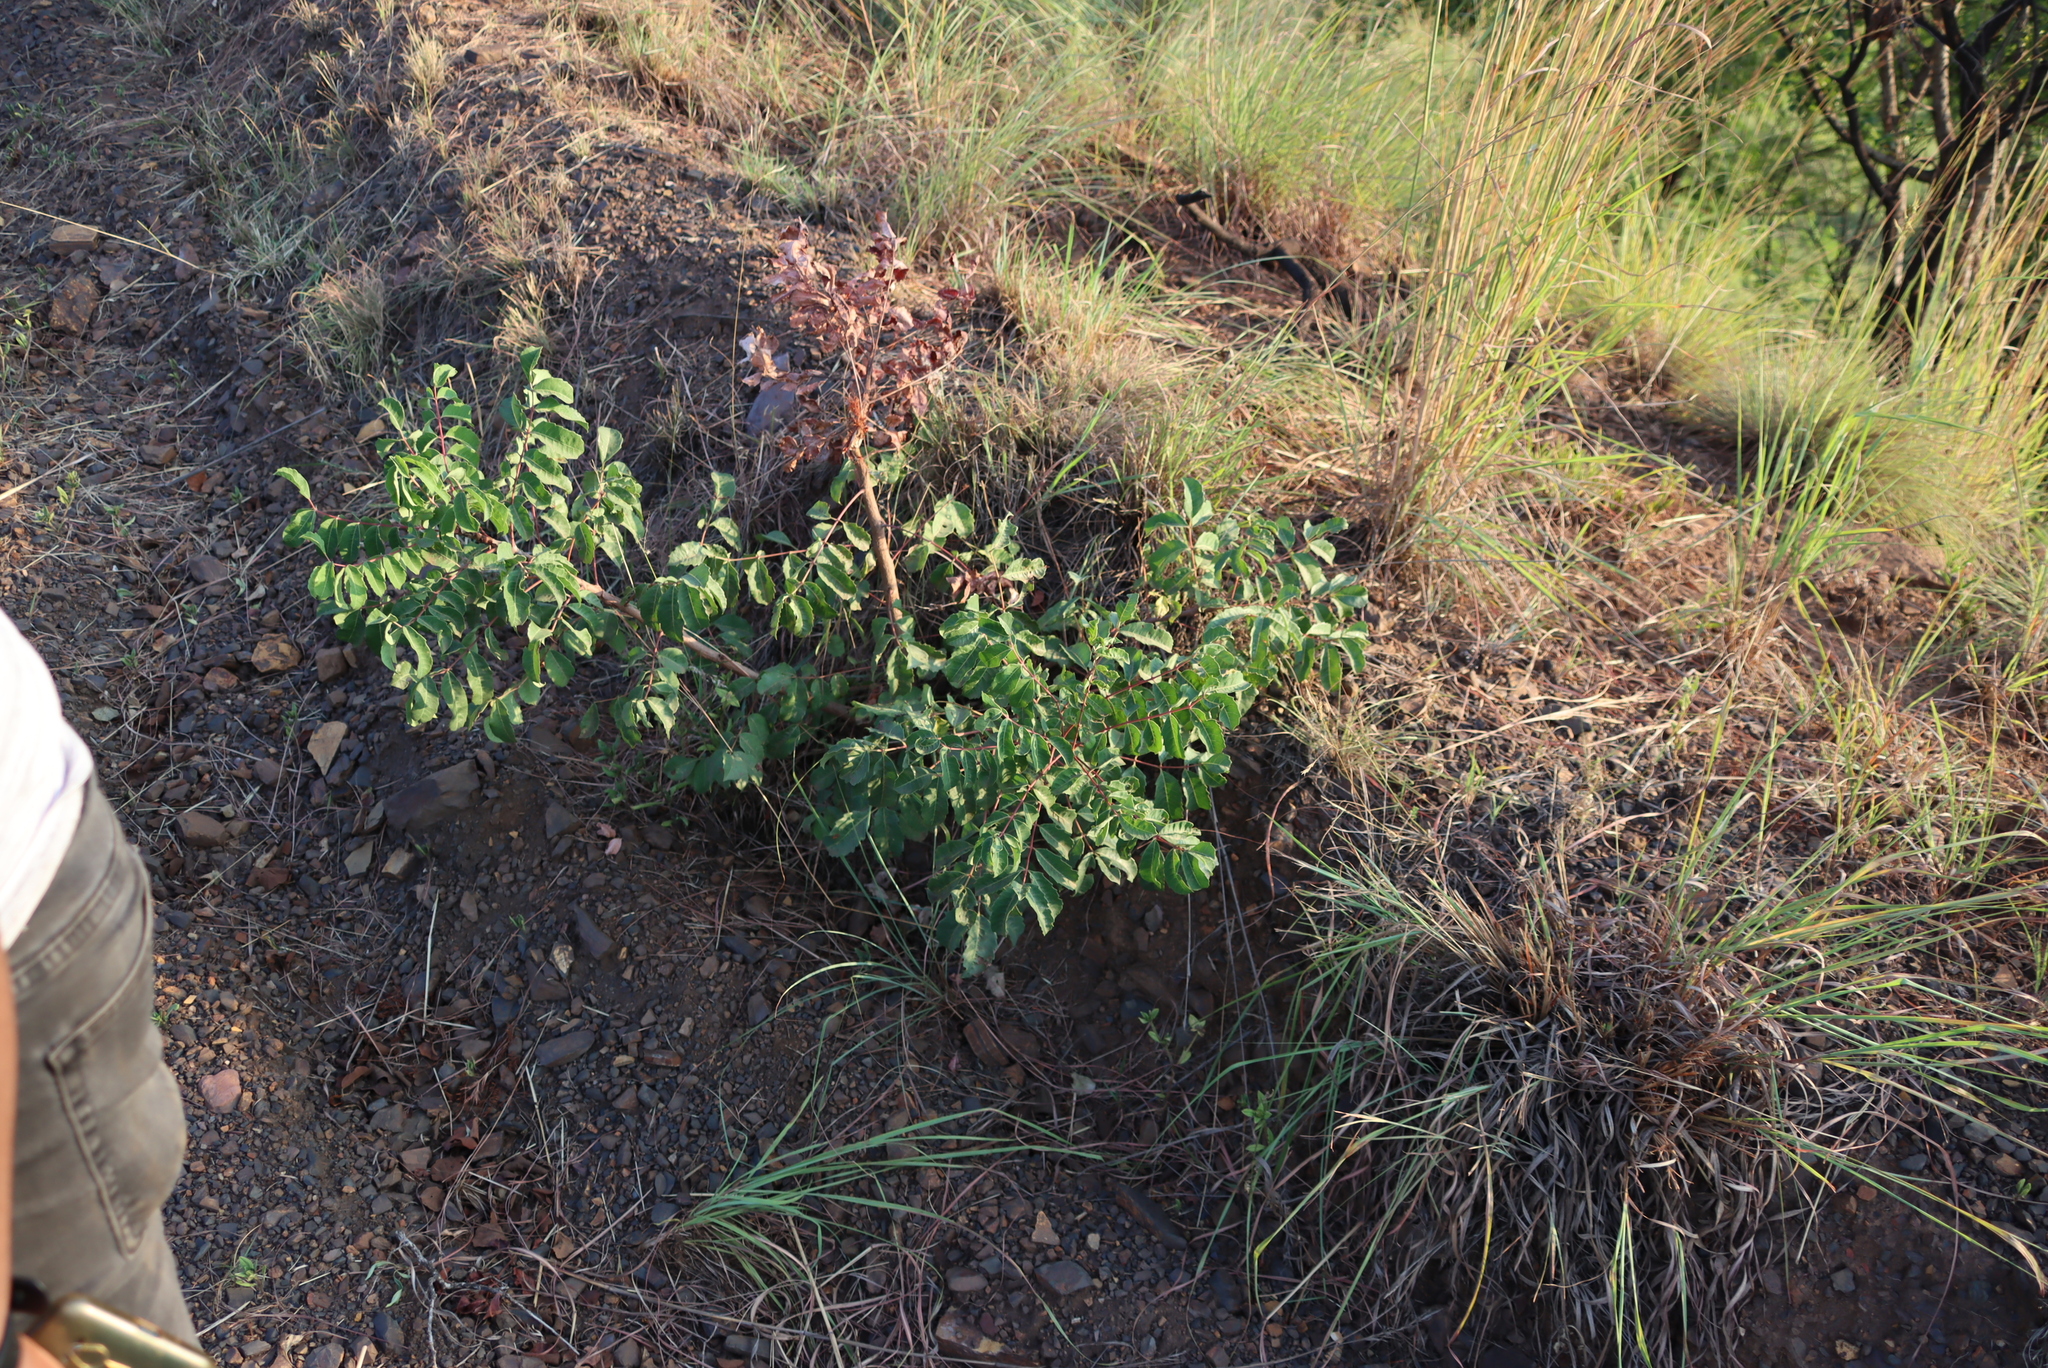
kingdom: Plantae
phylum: Tracheophyta
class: Magnoliopsida
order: Sapindales
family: Anacardiaceae
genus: Sclerocarya
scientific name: Sclerocarya birrea
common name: Marula
